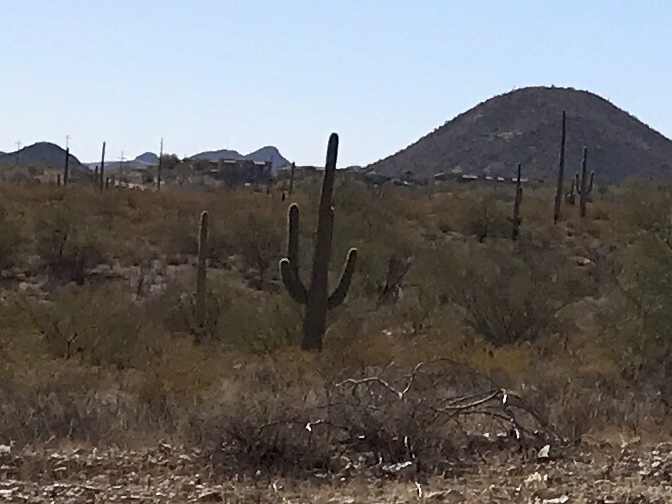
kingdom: Plantae
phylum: Tracheophyta
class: Magnoliopsida
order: Caryophyllales
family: Cactaceae
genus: Carnegiea
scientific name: Carnegiea gigantea
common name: Saguaro
